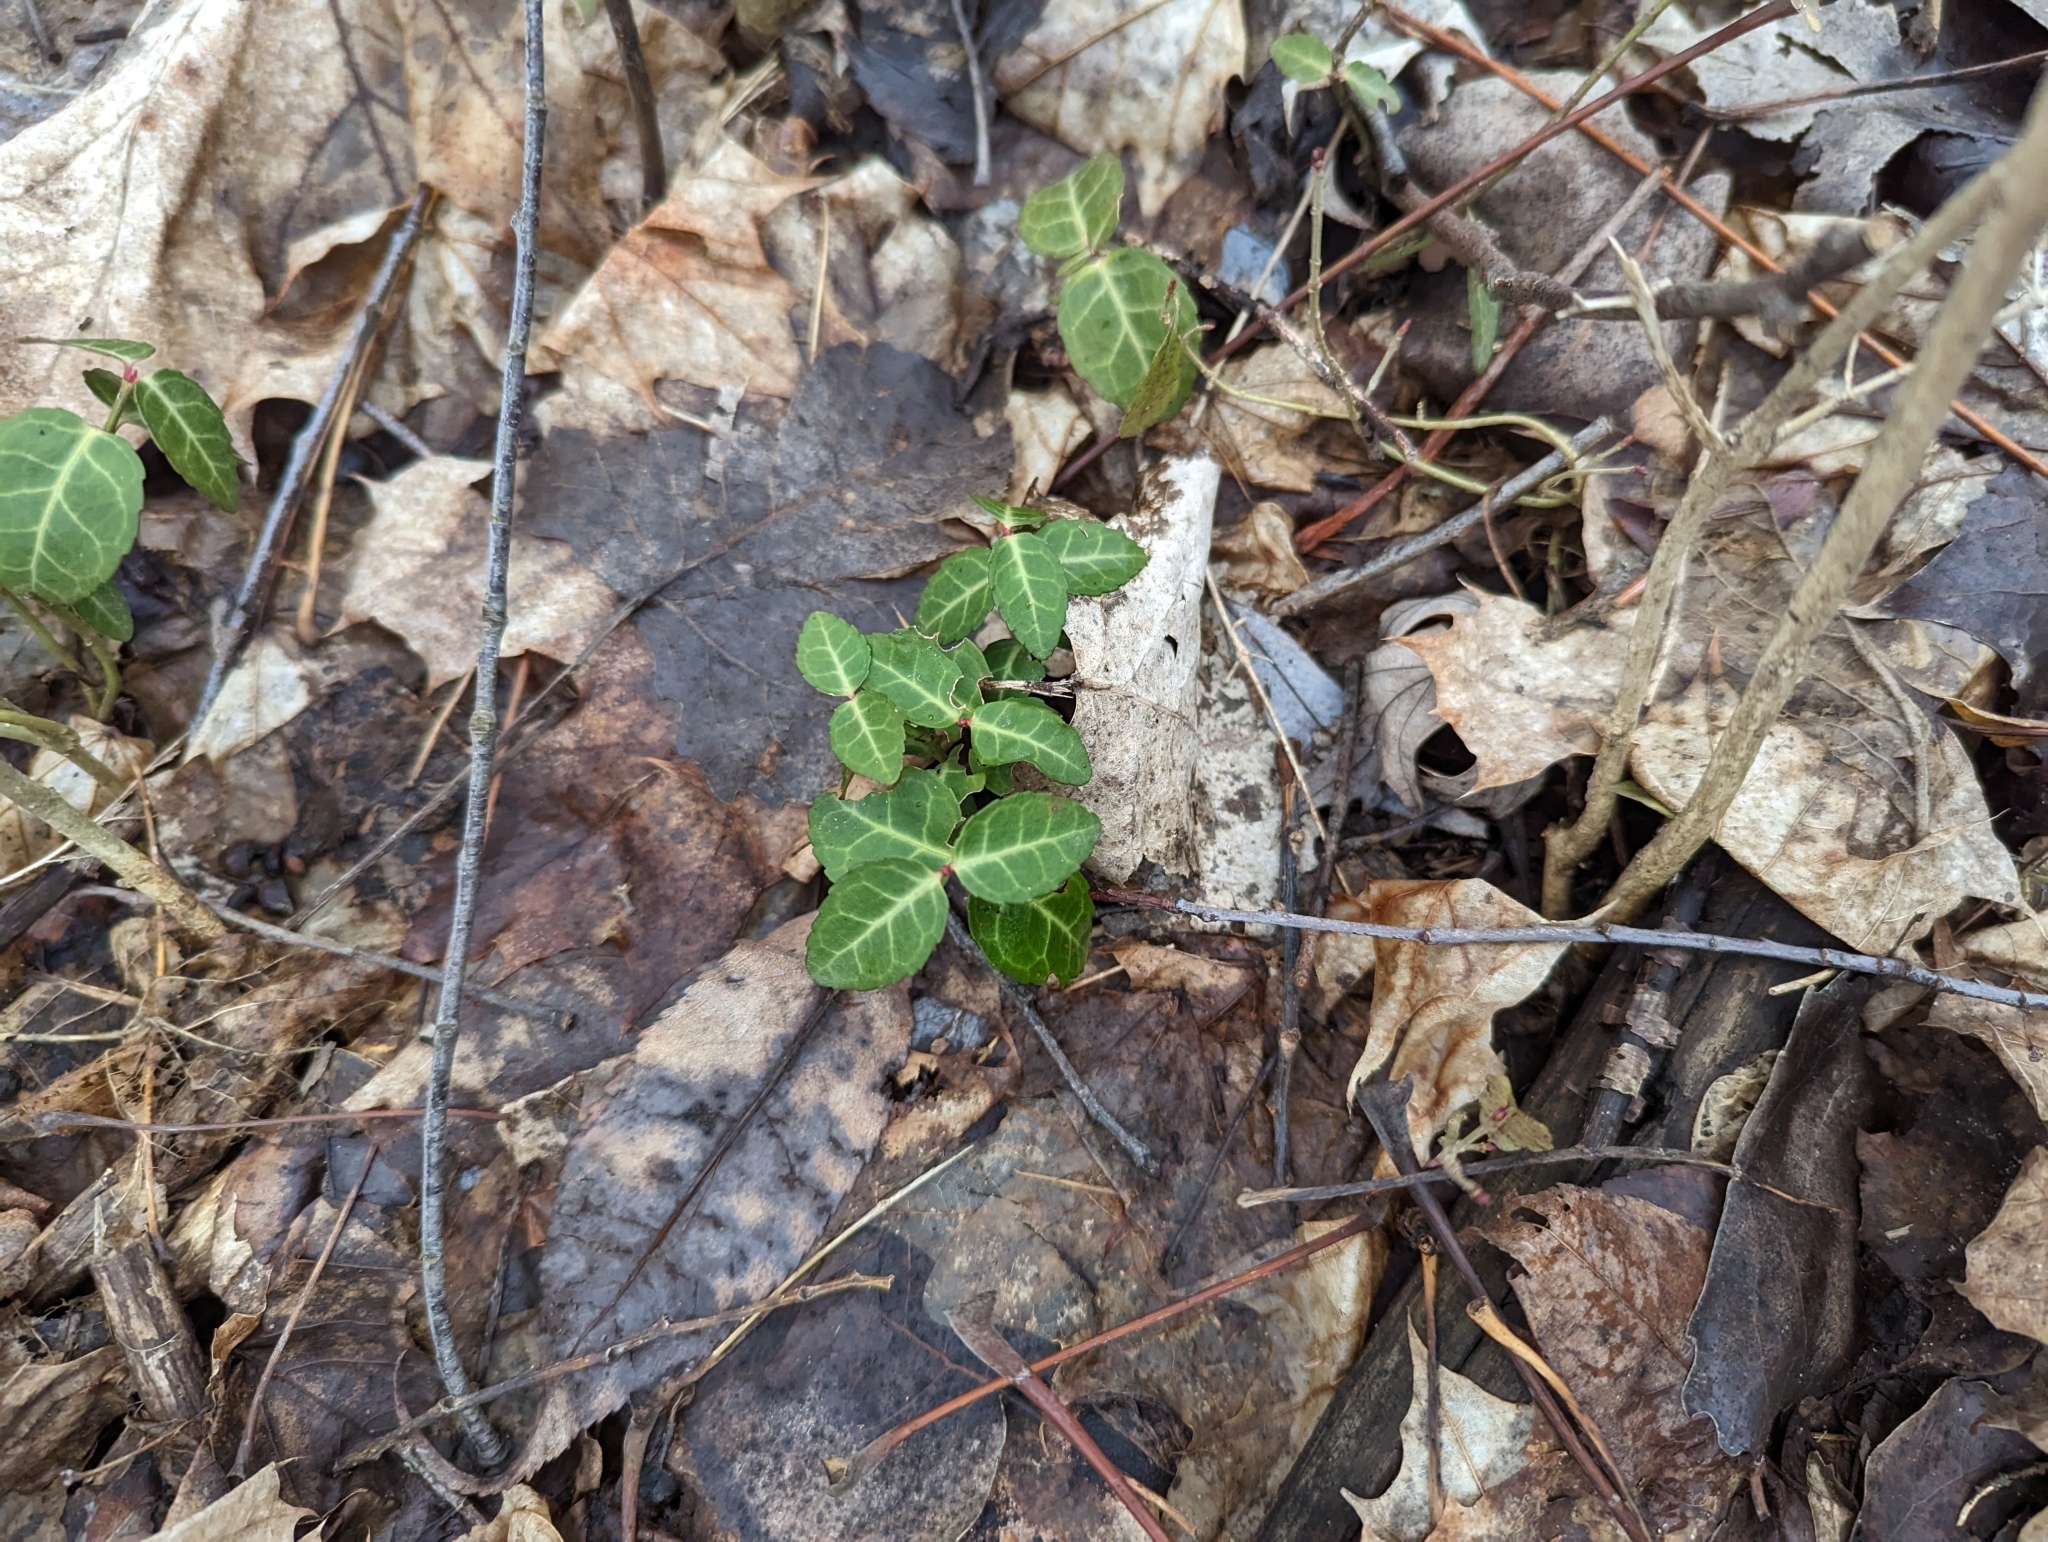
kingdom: Plantae
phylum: Tracheophyta
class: Magnoliopsida
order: Celastrales
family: Celastraceae
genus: Euonymus
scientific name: Euonymus fortunei
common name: Climbing euonymus
